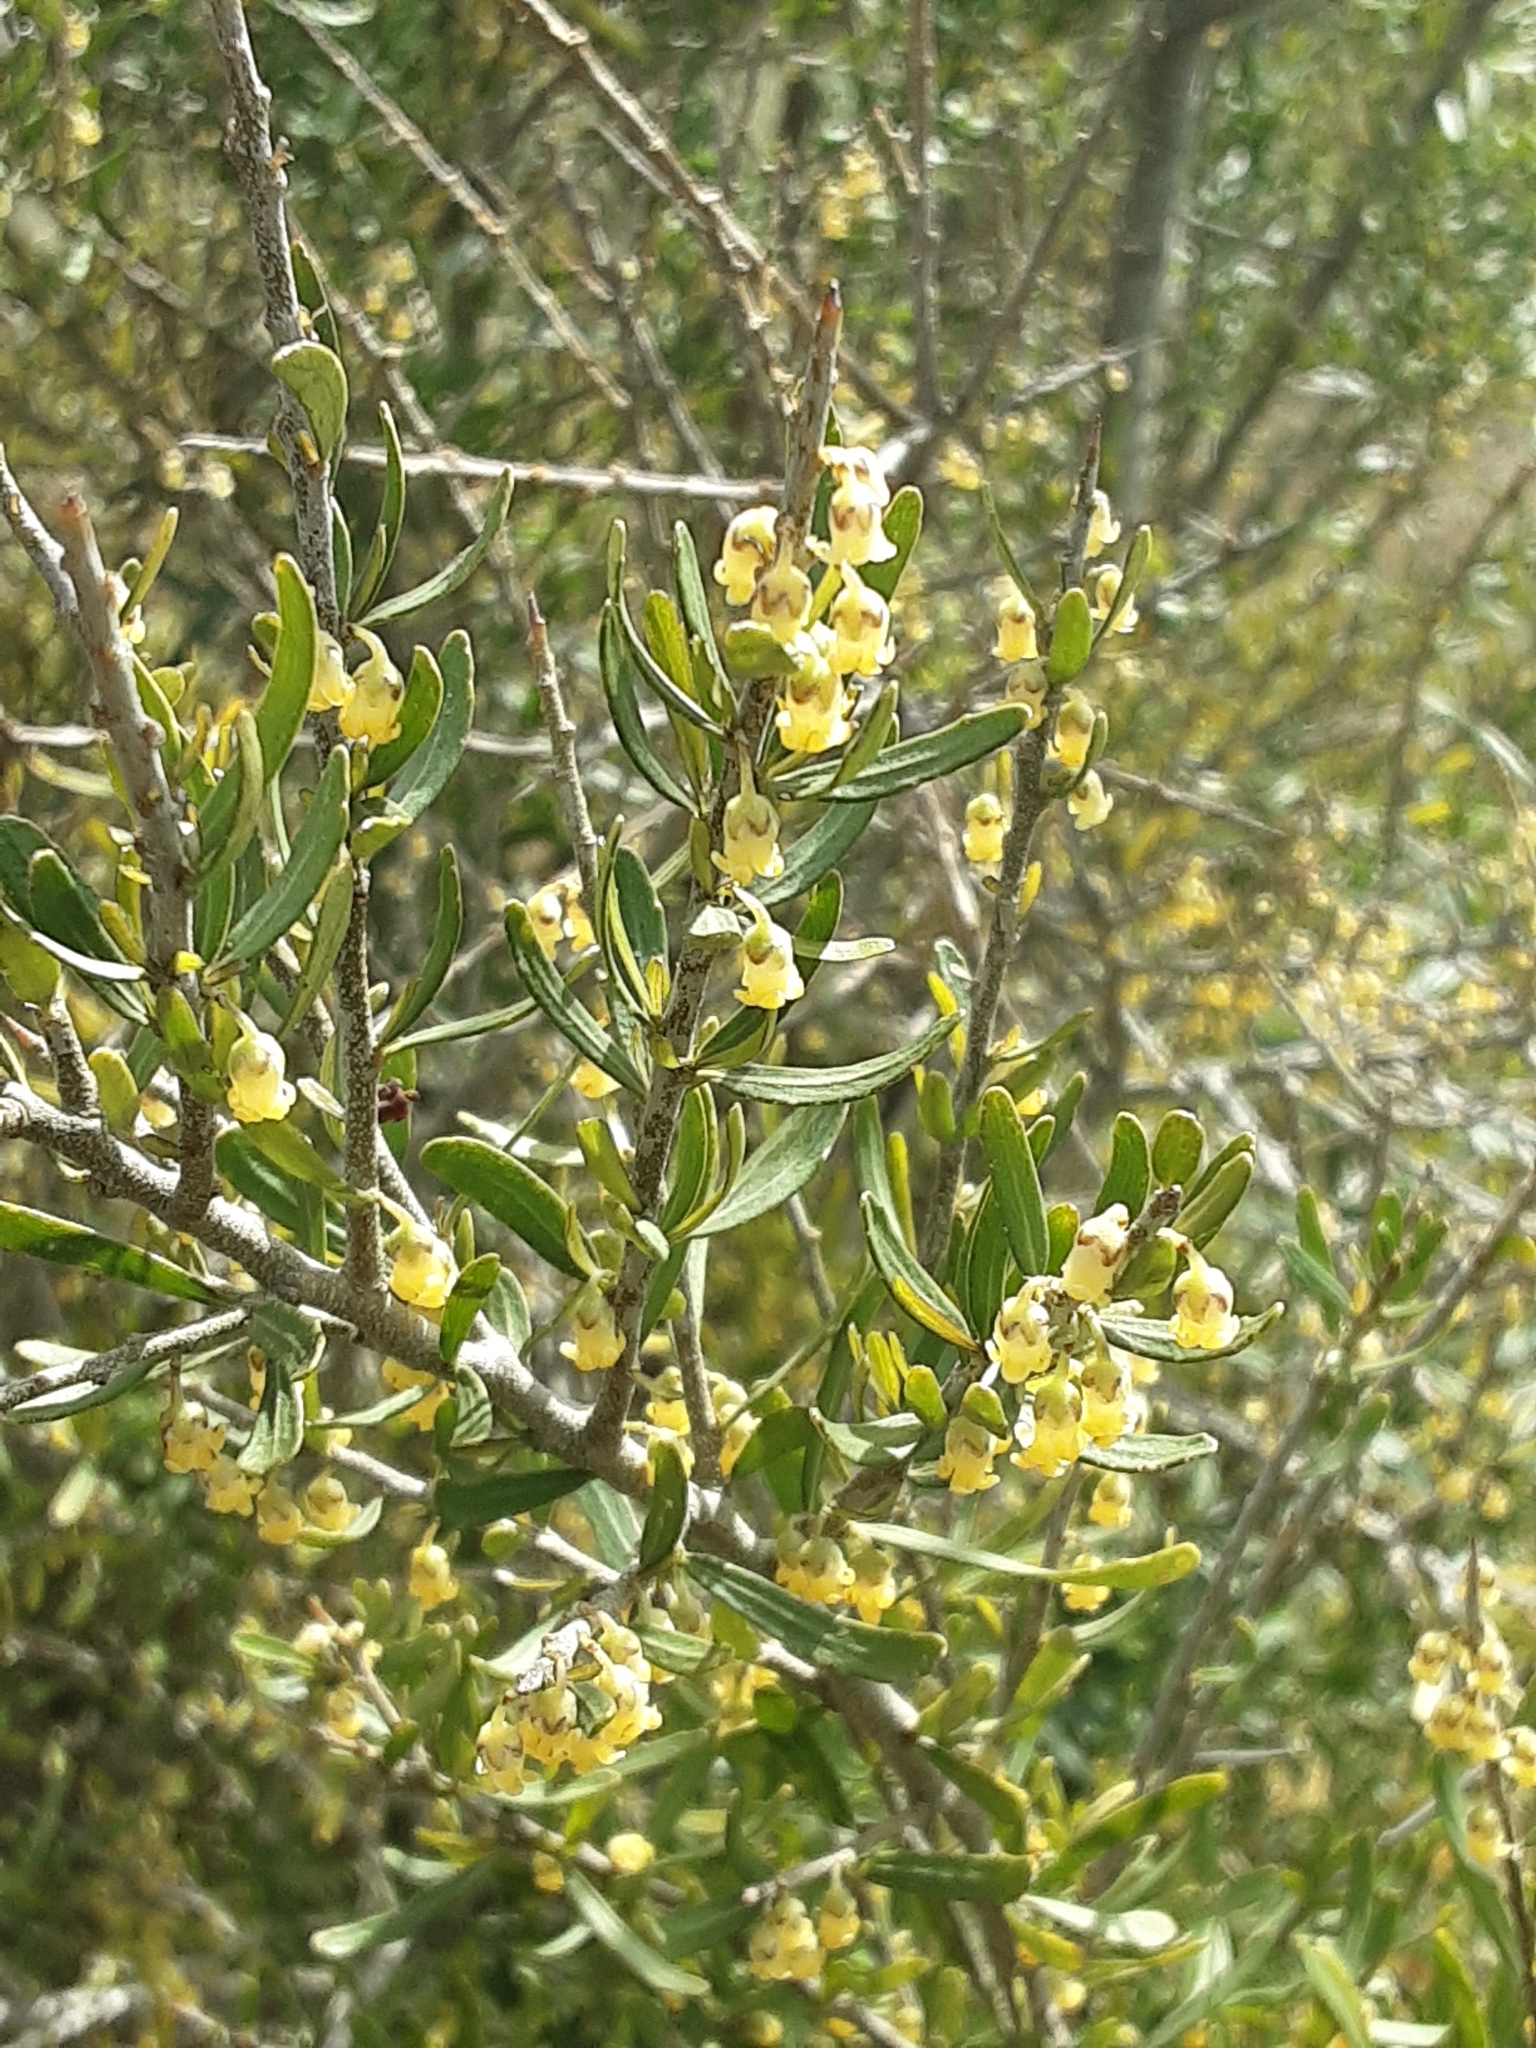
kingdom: Plantae
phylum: Tracheophyta
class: Magnoliopsida
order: Malpighiales
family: Violaceae
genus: Melicytus
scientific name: Melicytus dentatus
